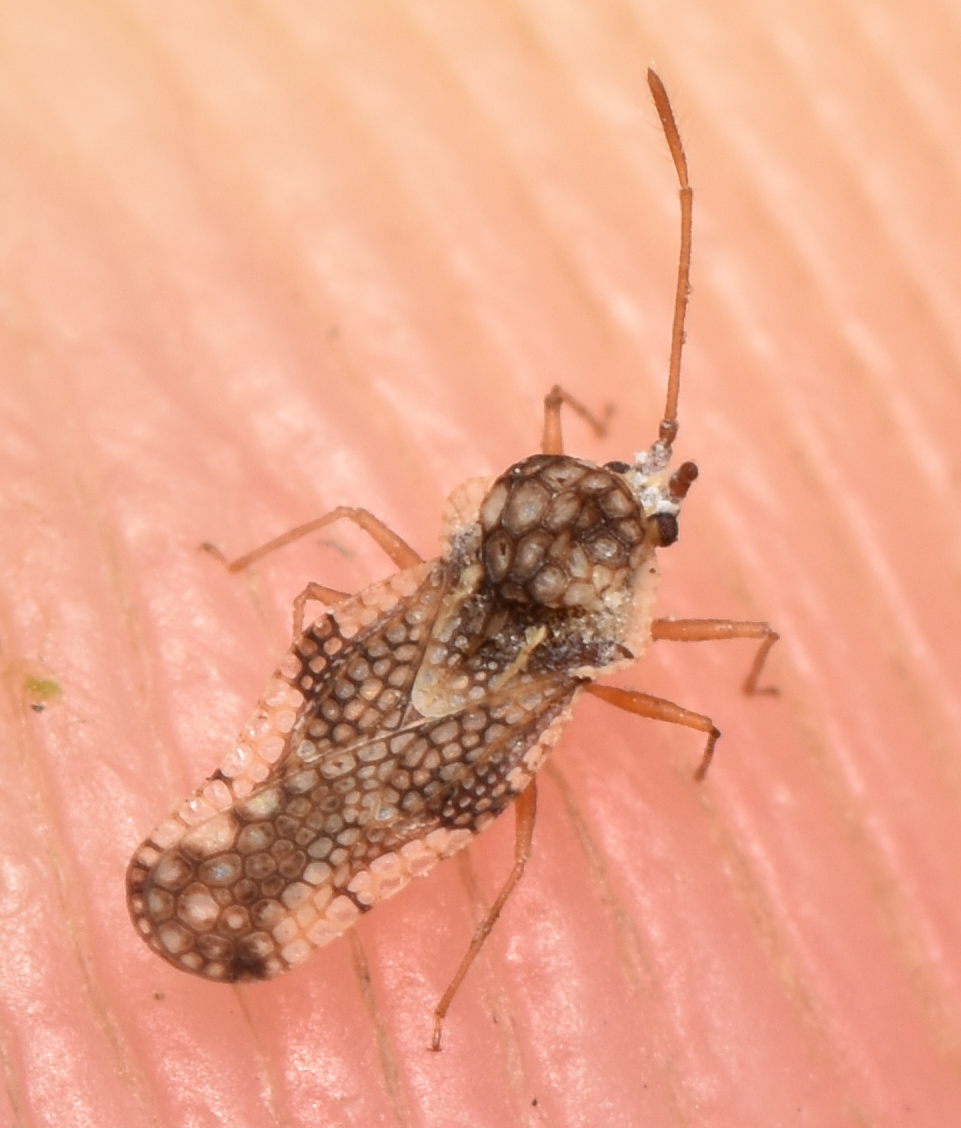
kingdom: Animalia
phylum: Arthropoda
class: Insecta
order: Hemiptera
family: Tingidae
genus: Corythauma
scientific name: Corythauma ayyari
